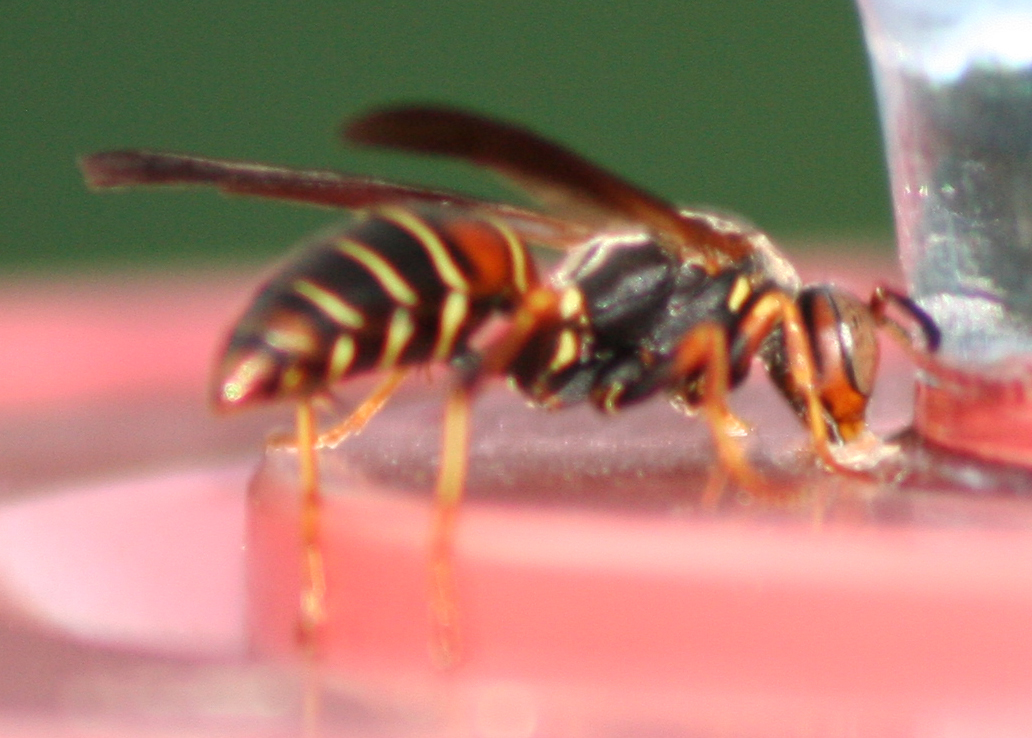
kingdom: Animalia
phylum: Arthropoda
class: Insecta
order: Hymenoptera
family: Eumenidae
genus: Polistes
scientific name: Polistes fuscatus
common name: Dark paper wasp
